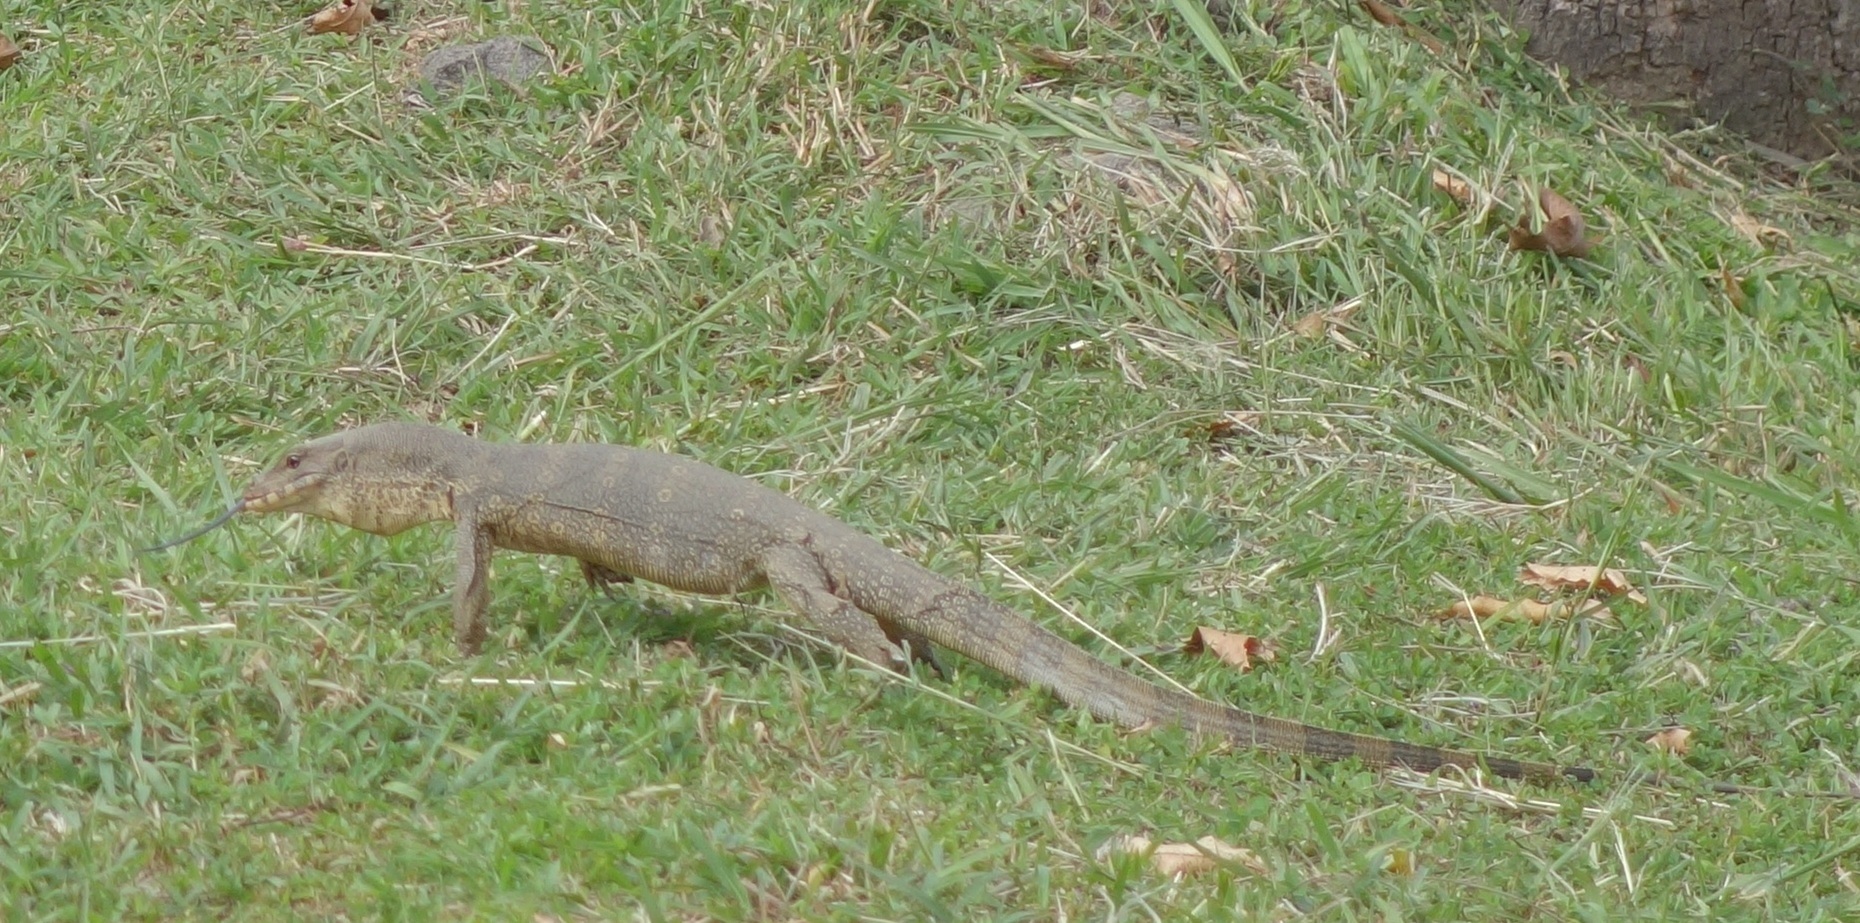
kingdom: Animalia
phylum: Chordata
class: Squamata
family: Varanidae
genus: Varanus
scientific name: Varanus salvator
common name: Common water monitor
